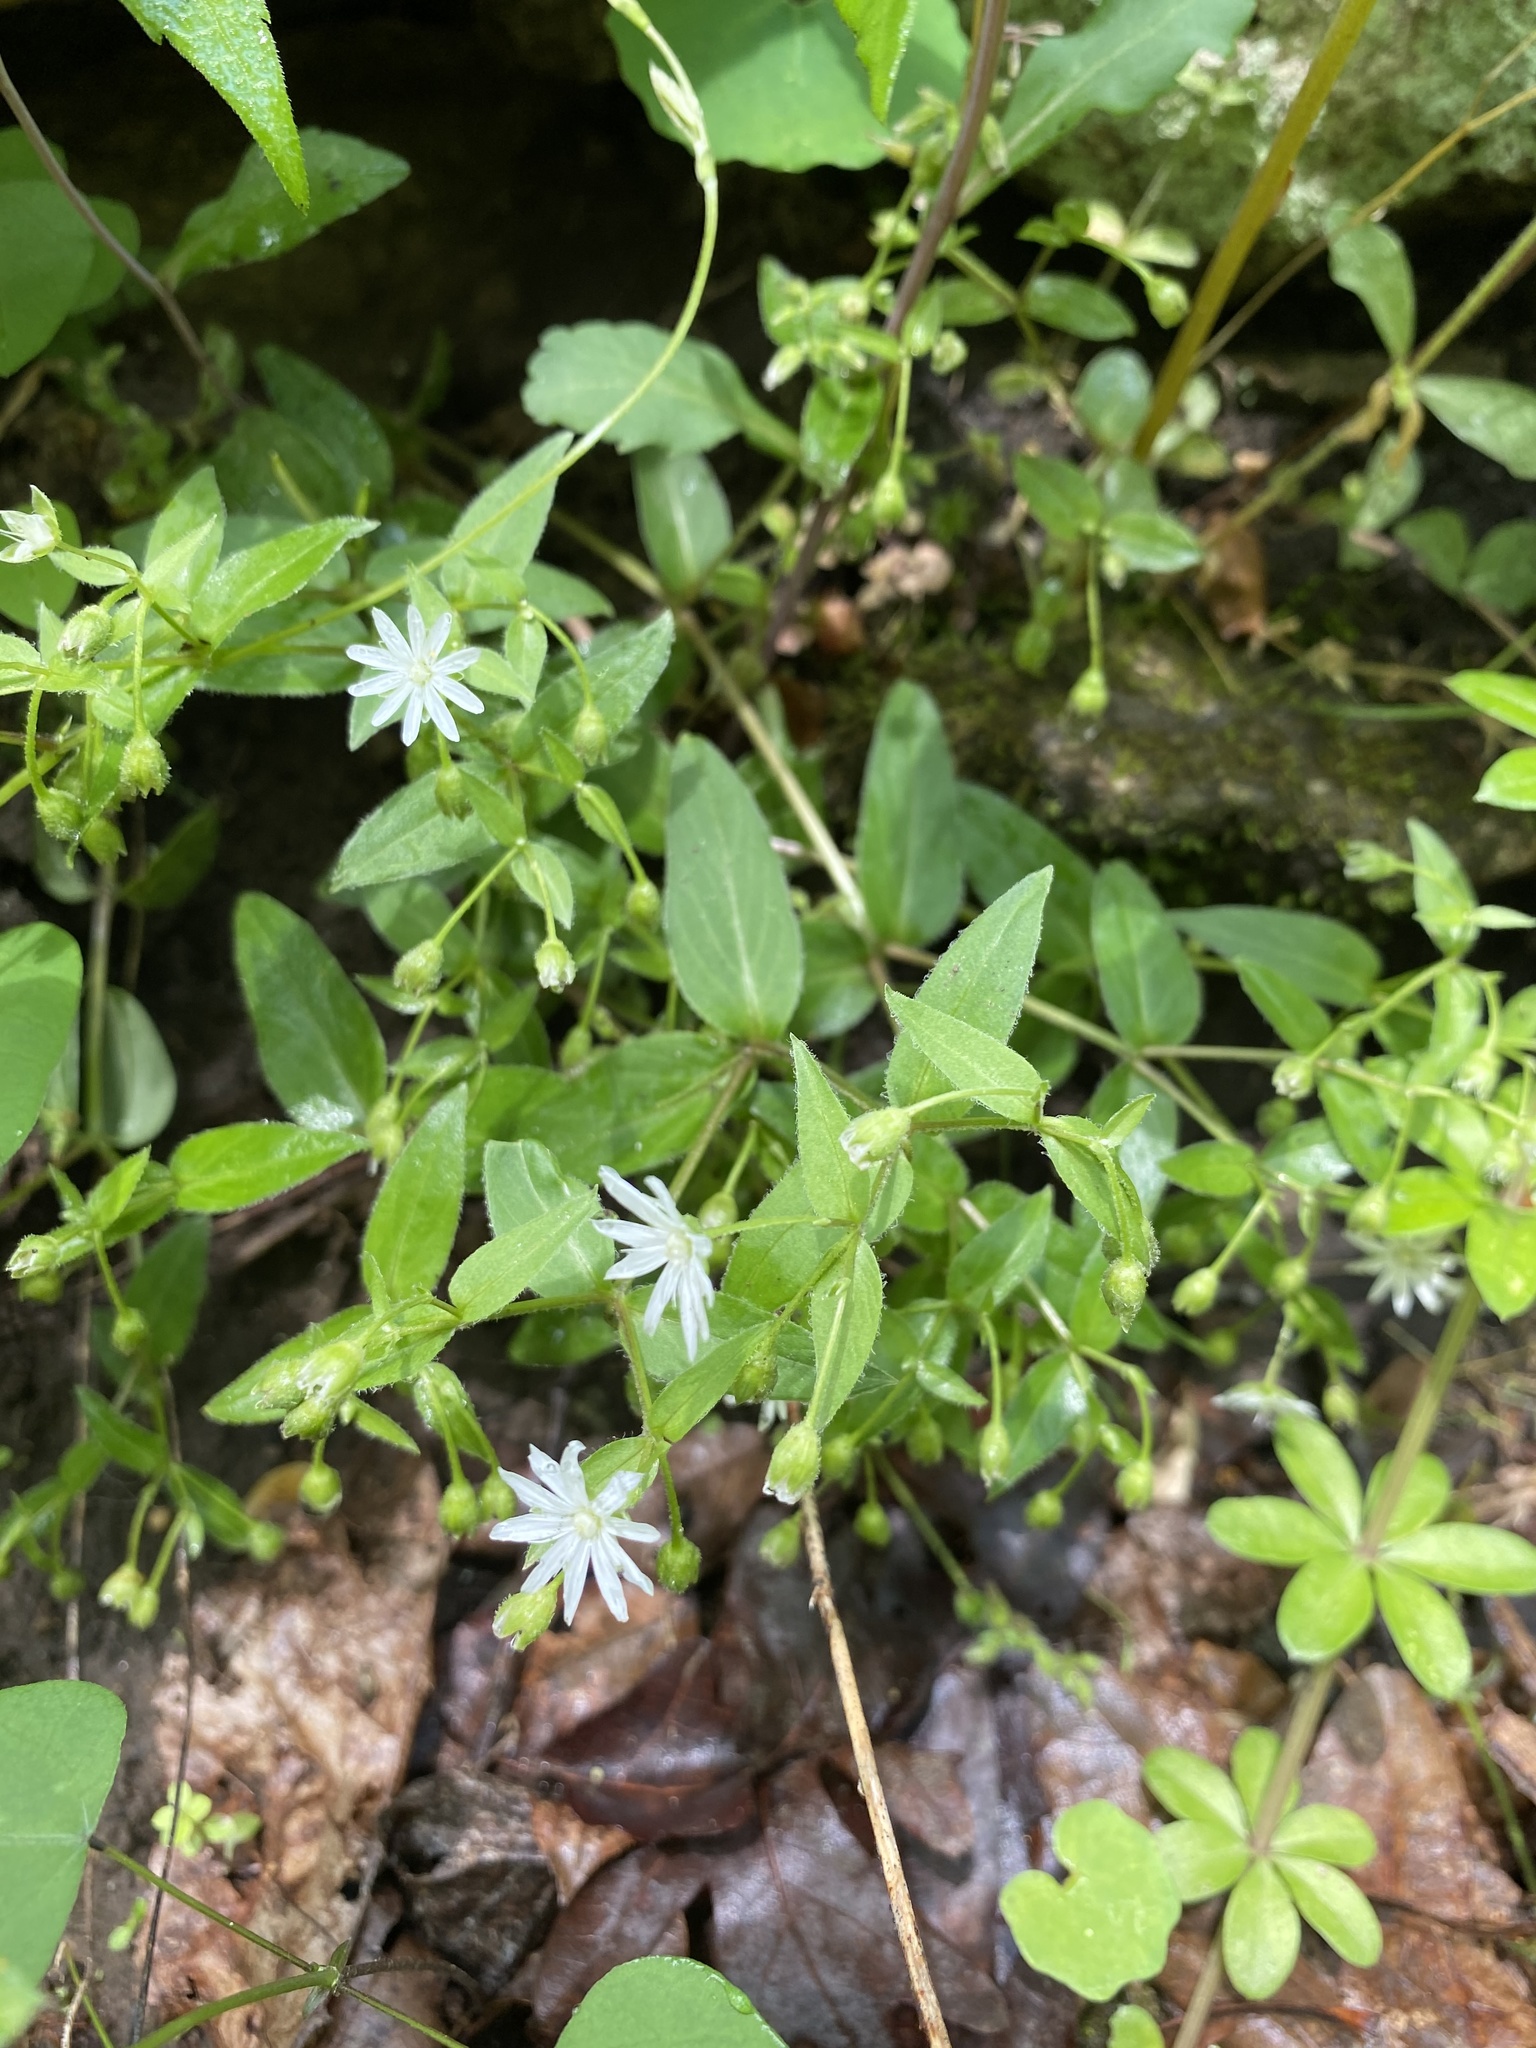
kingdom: Plantae
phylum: Tracheophyta
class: Magnoliopsida
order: Caryophyllales
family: Caryophyllaceae
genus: Stellaria
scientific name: Stellaria pubera
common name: Star chickweed
